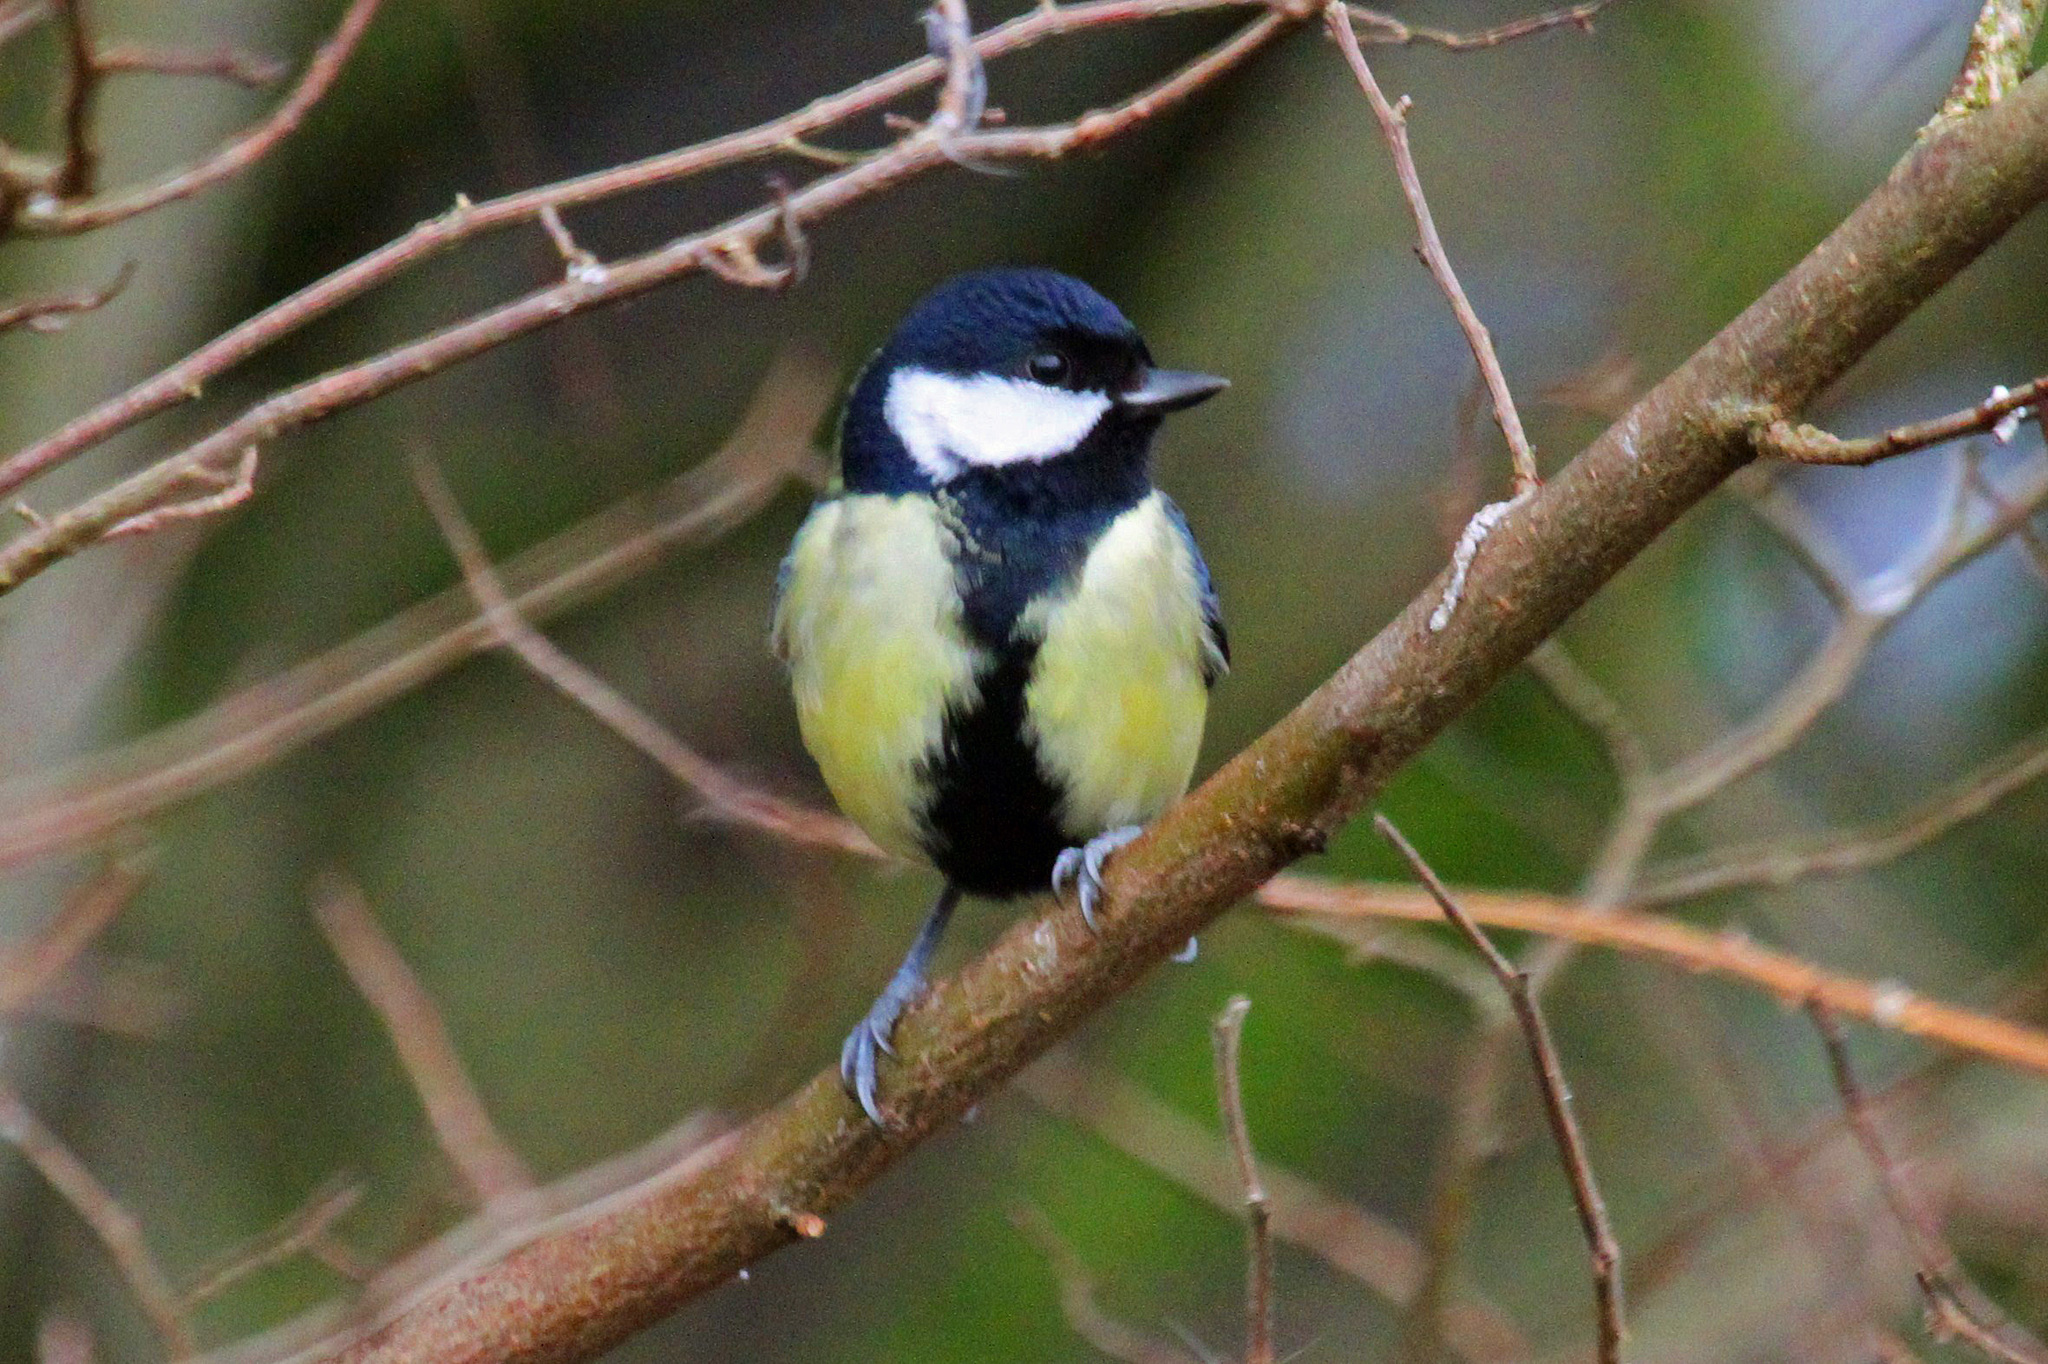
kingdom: Animalia
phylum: Chordata
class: Aves
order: Passeriformes
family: Paridae
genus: Parus
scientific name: Parus major
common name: Great tit
